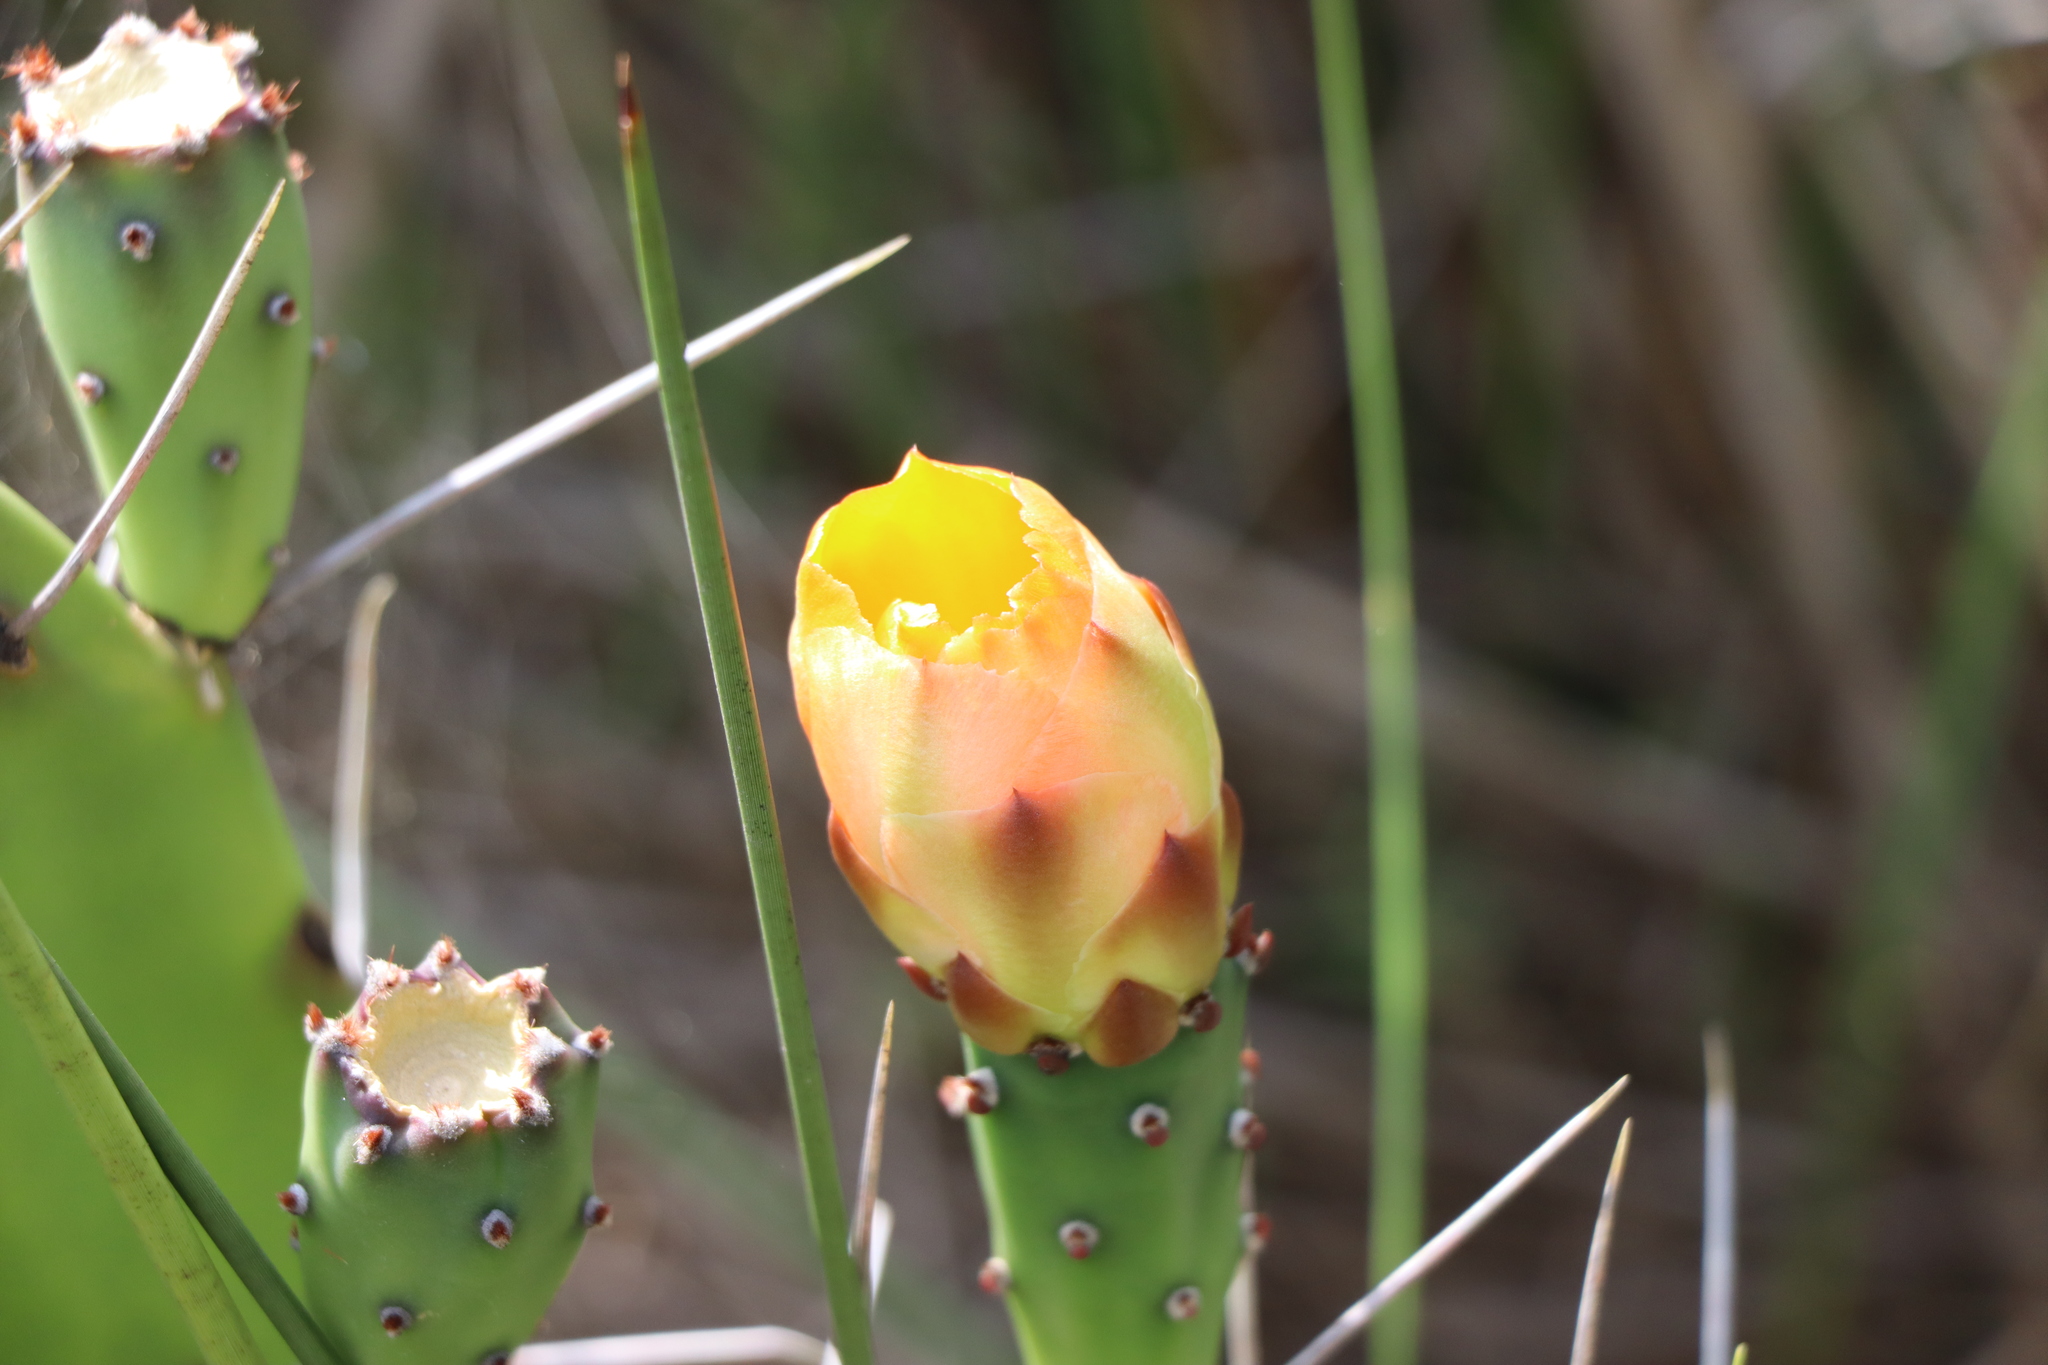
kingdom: Plantae
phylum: Tracheophyta
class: Magnoliopsida
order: Caryophyllales
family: Cactaceae
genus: Opuntia
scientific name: Opuntia monacantha
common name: Common pricklypear
